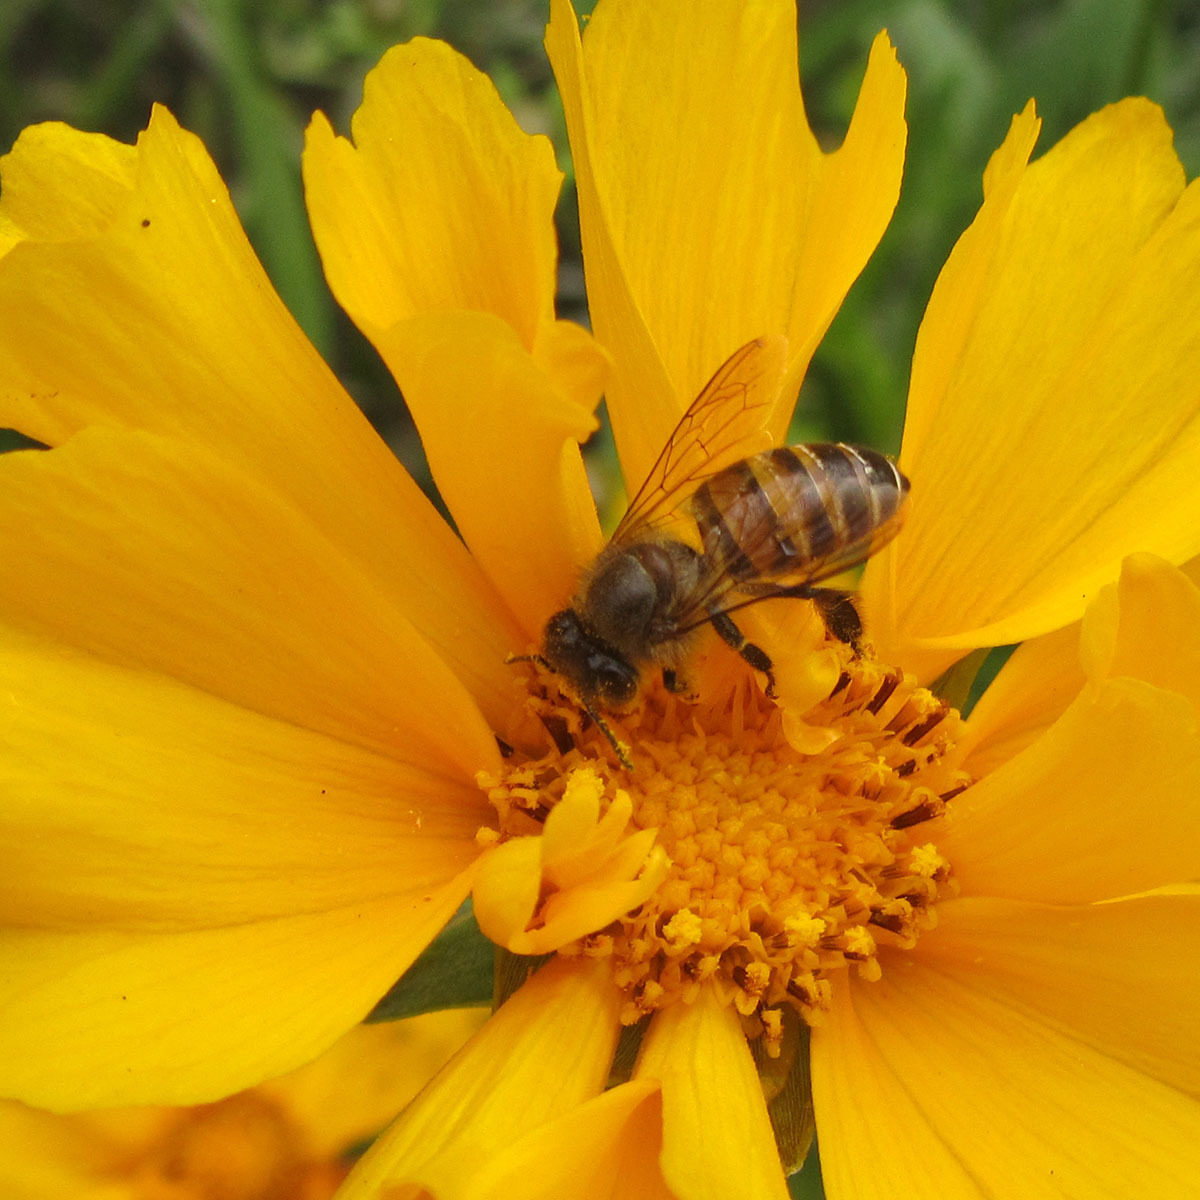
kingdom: Animalia
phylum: Arthropoda
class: Insecta
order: Hymenoptera
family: Apidae
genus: Apis
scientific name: Apis cerana
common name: Honey bee
